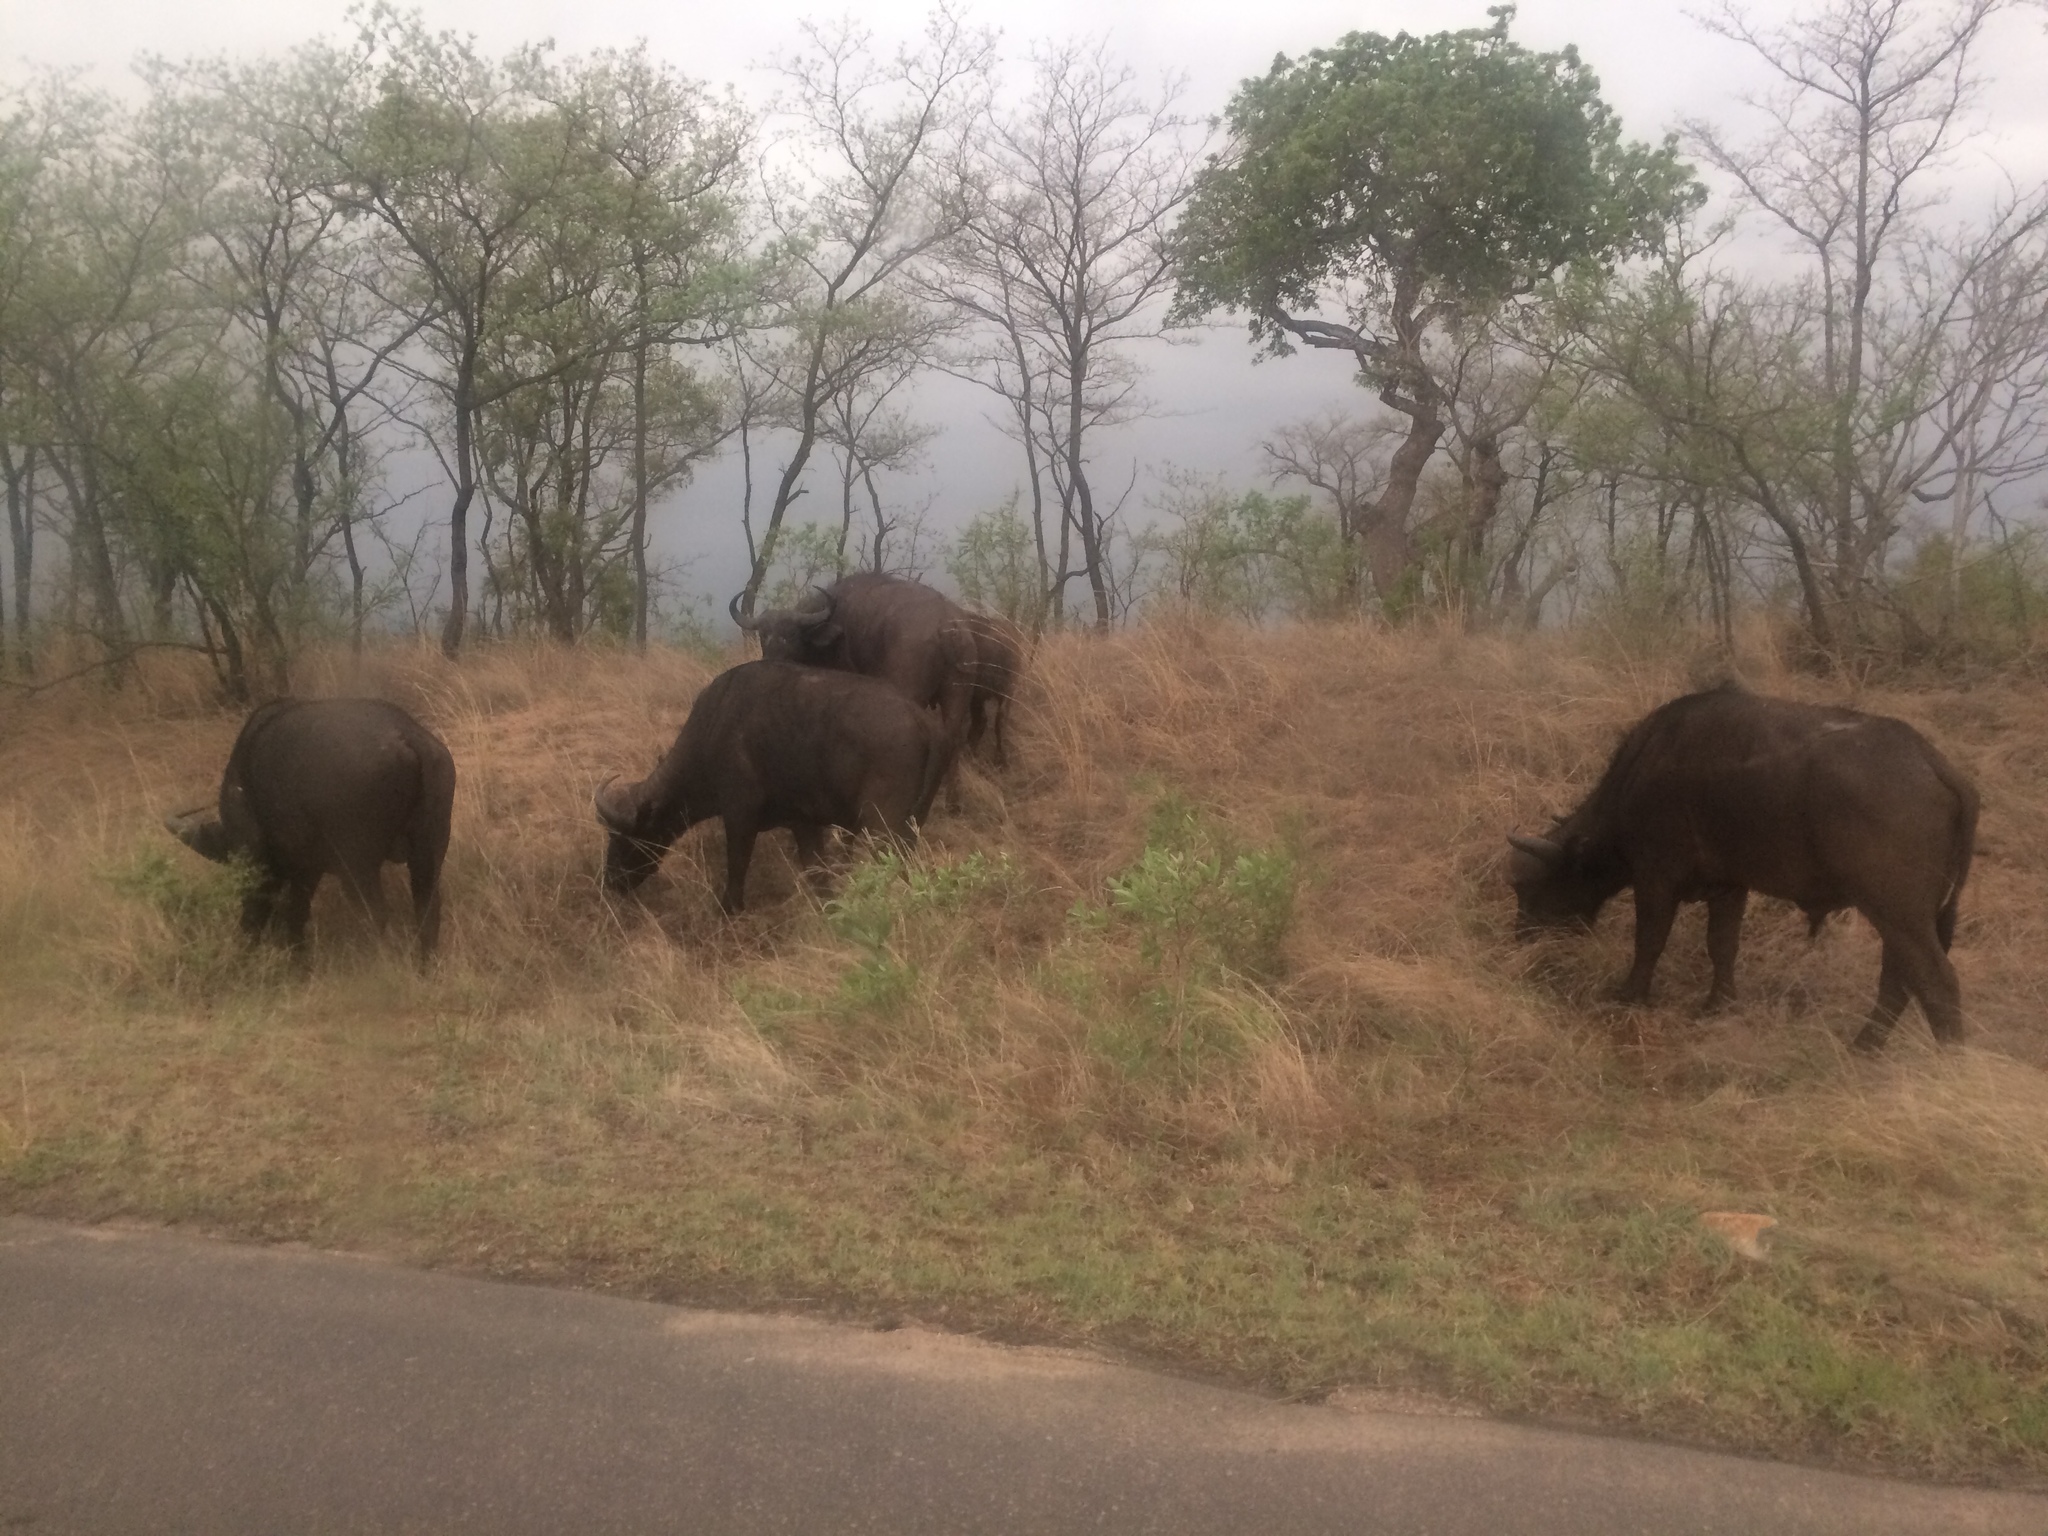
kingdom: Animalia
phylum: Chordata
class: Mammalia
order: Artiodactyla
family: Bovidae
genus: Syncerus
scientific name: Syncerus caffer
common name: African buffalo
